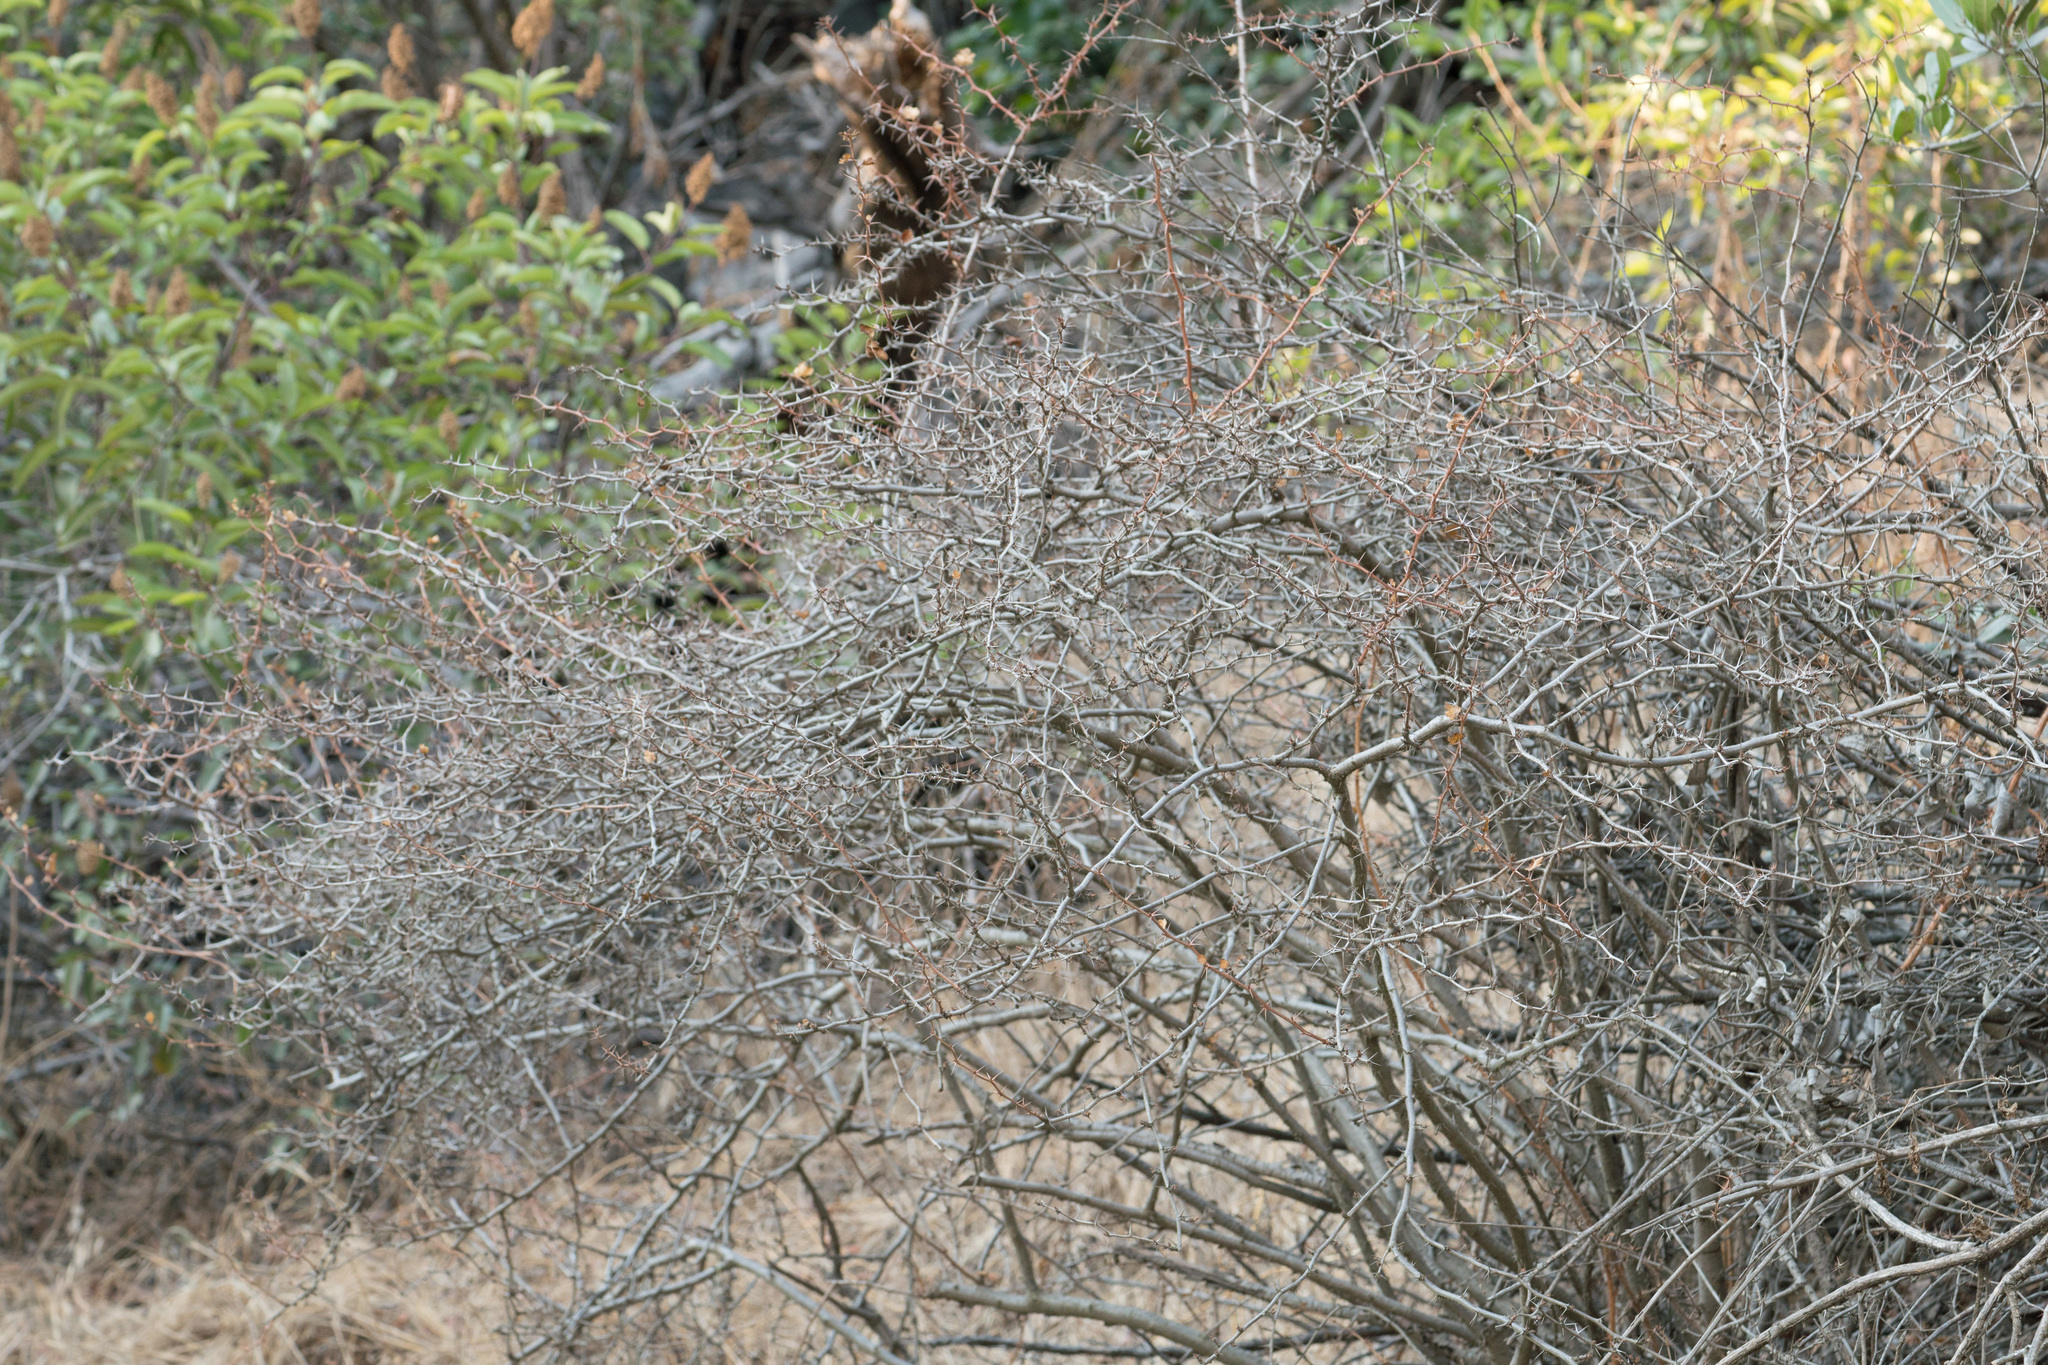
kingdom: Plantae
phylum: Tracheophyta
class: Magnoliopsida
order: Saxifragales
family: Grossulariaceae
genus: Ribes
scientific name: Ribes speciosum
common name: Fuchsia-flower gooseberry
